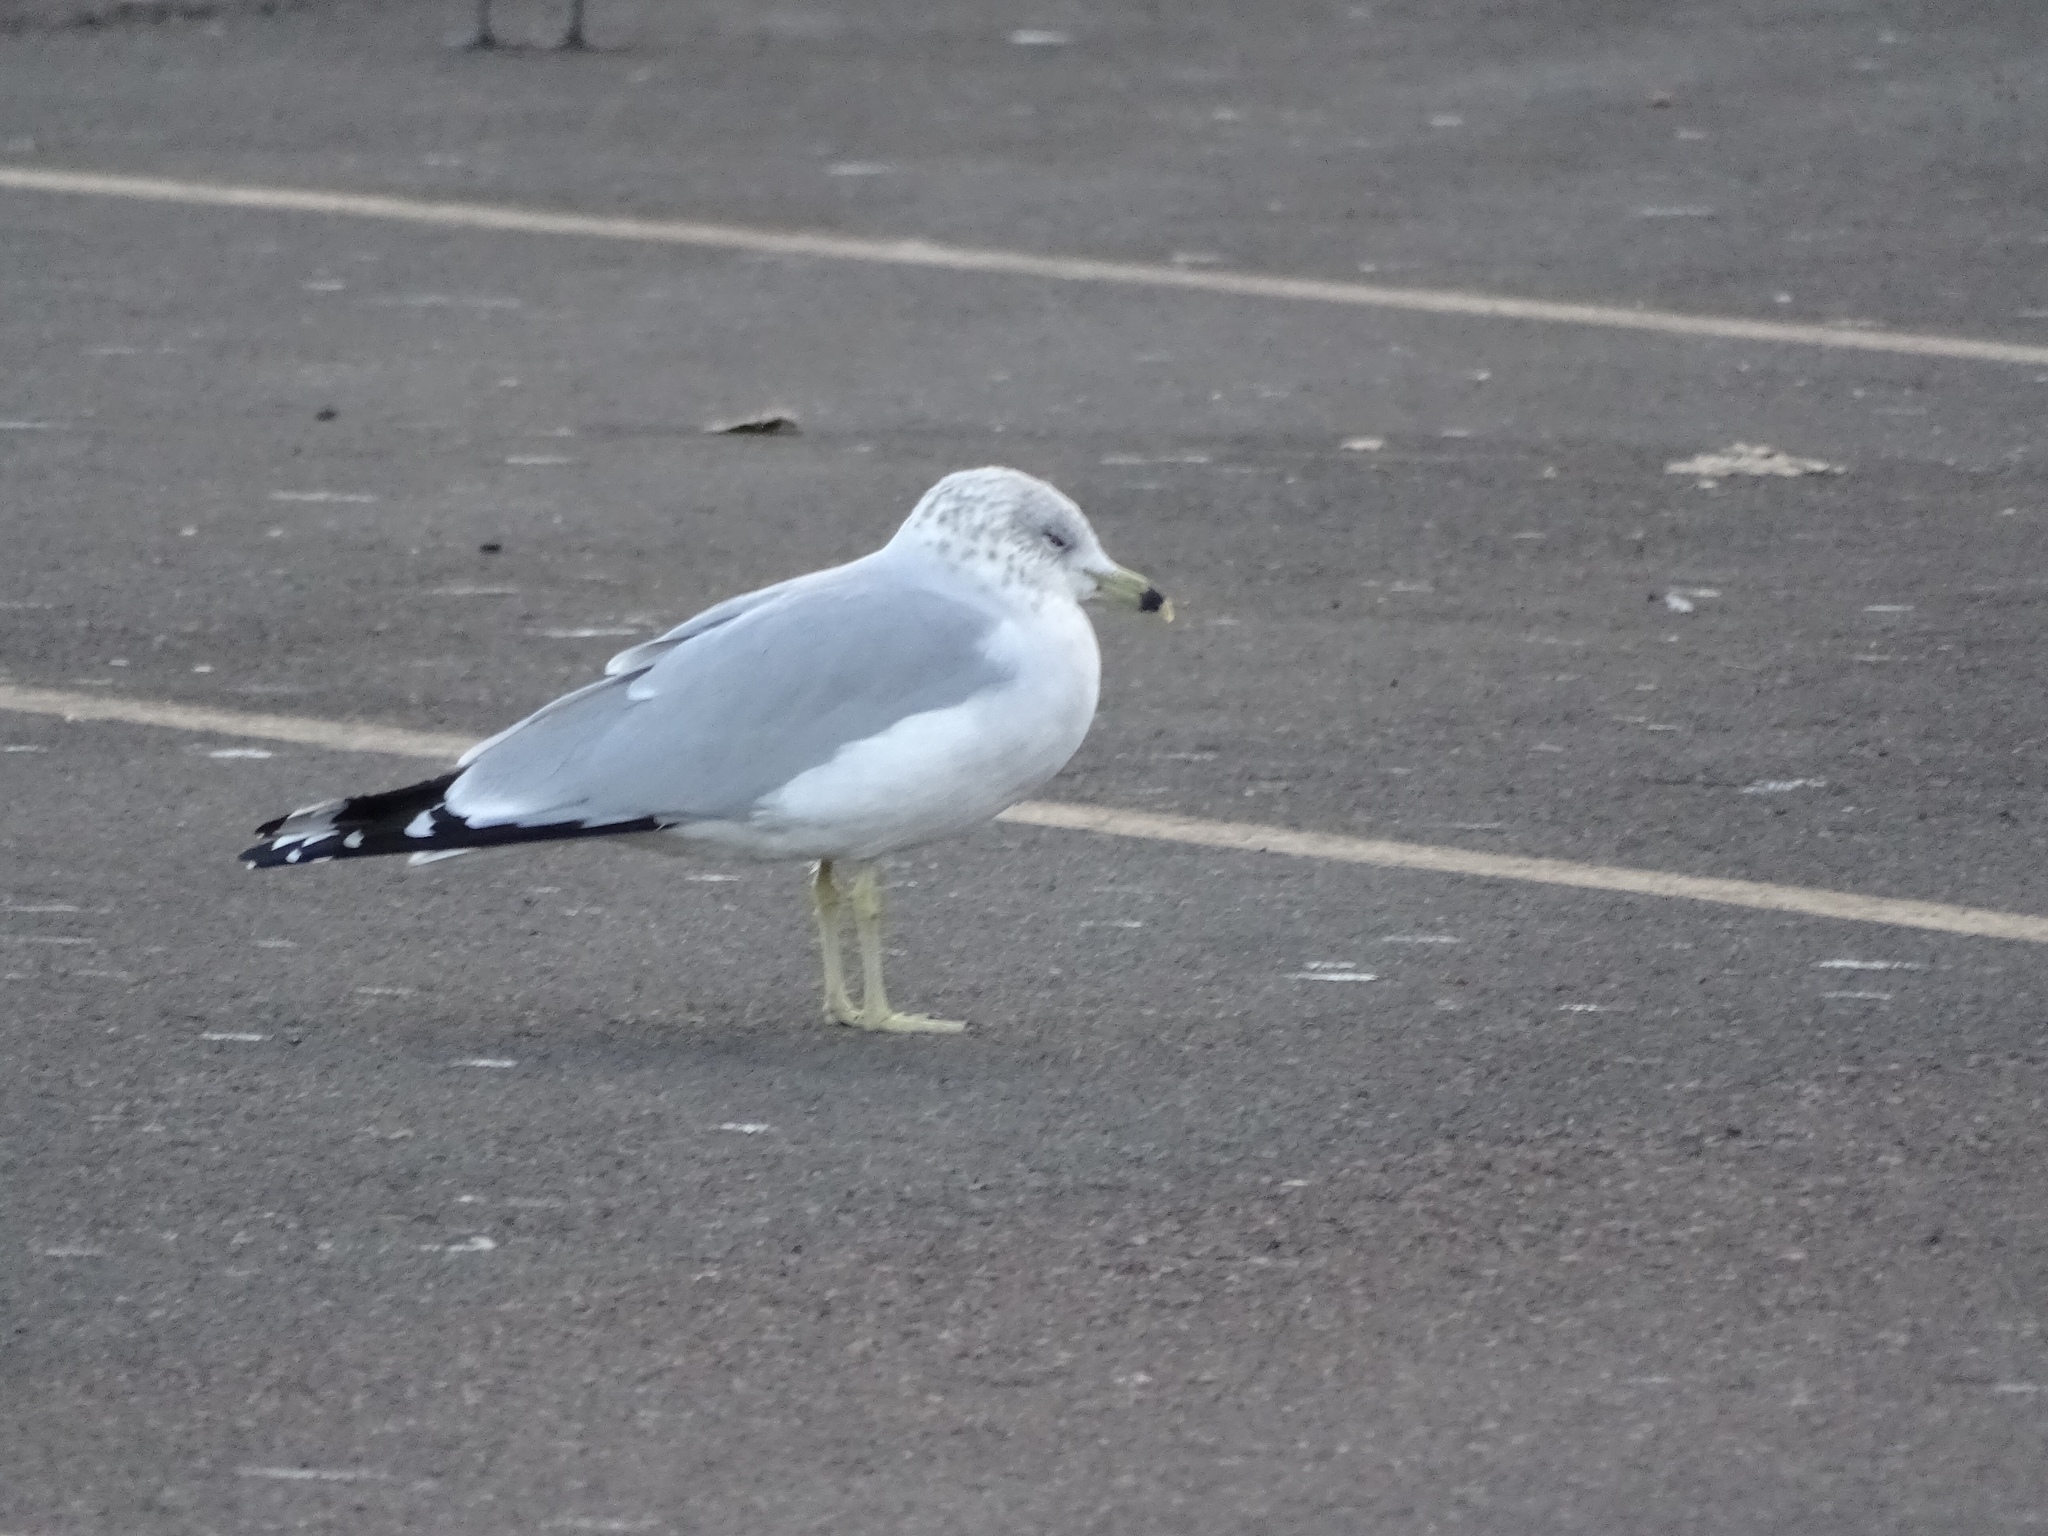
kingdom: Animalia
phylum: Chordata
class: Aves
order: Charadriiformes
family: Laridae
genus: Larus
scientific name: Larus delawarensis
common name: Ring-billed gull
